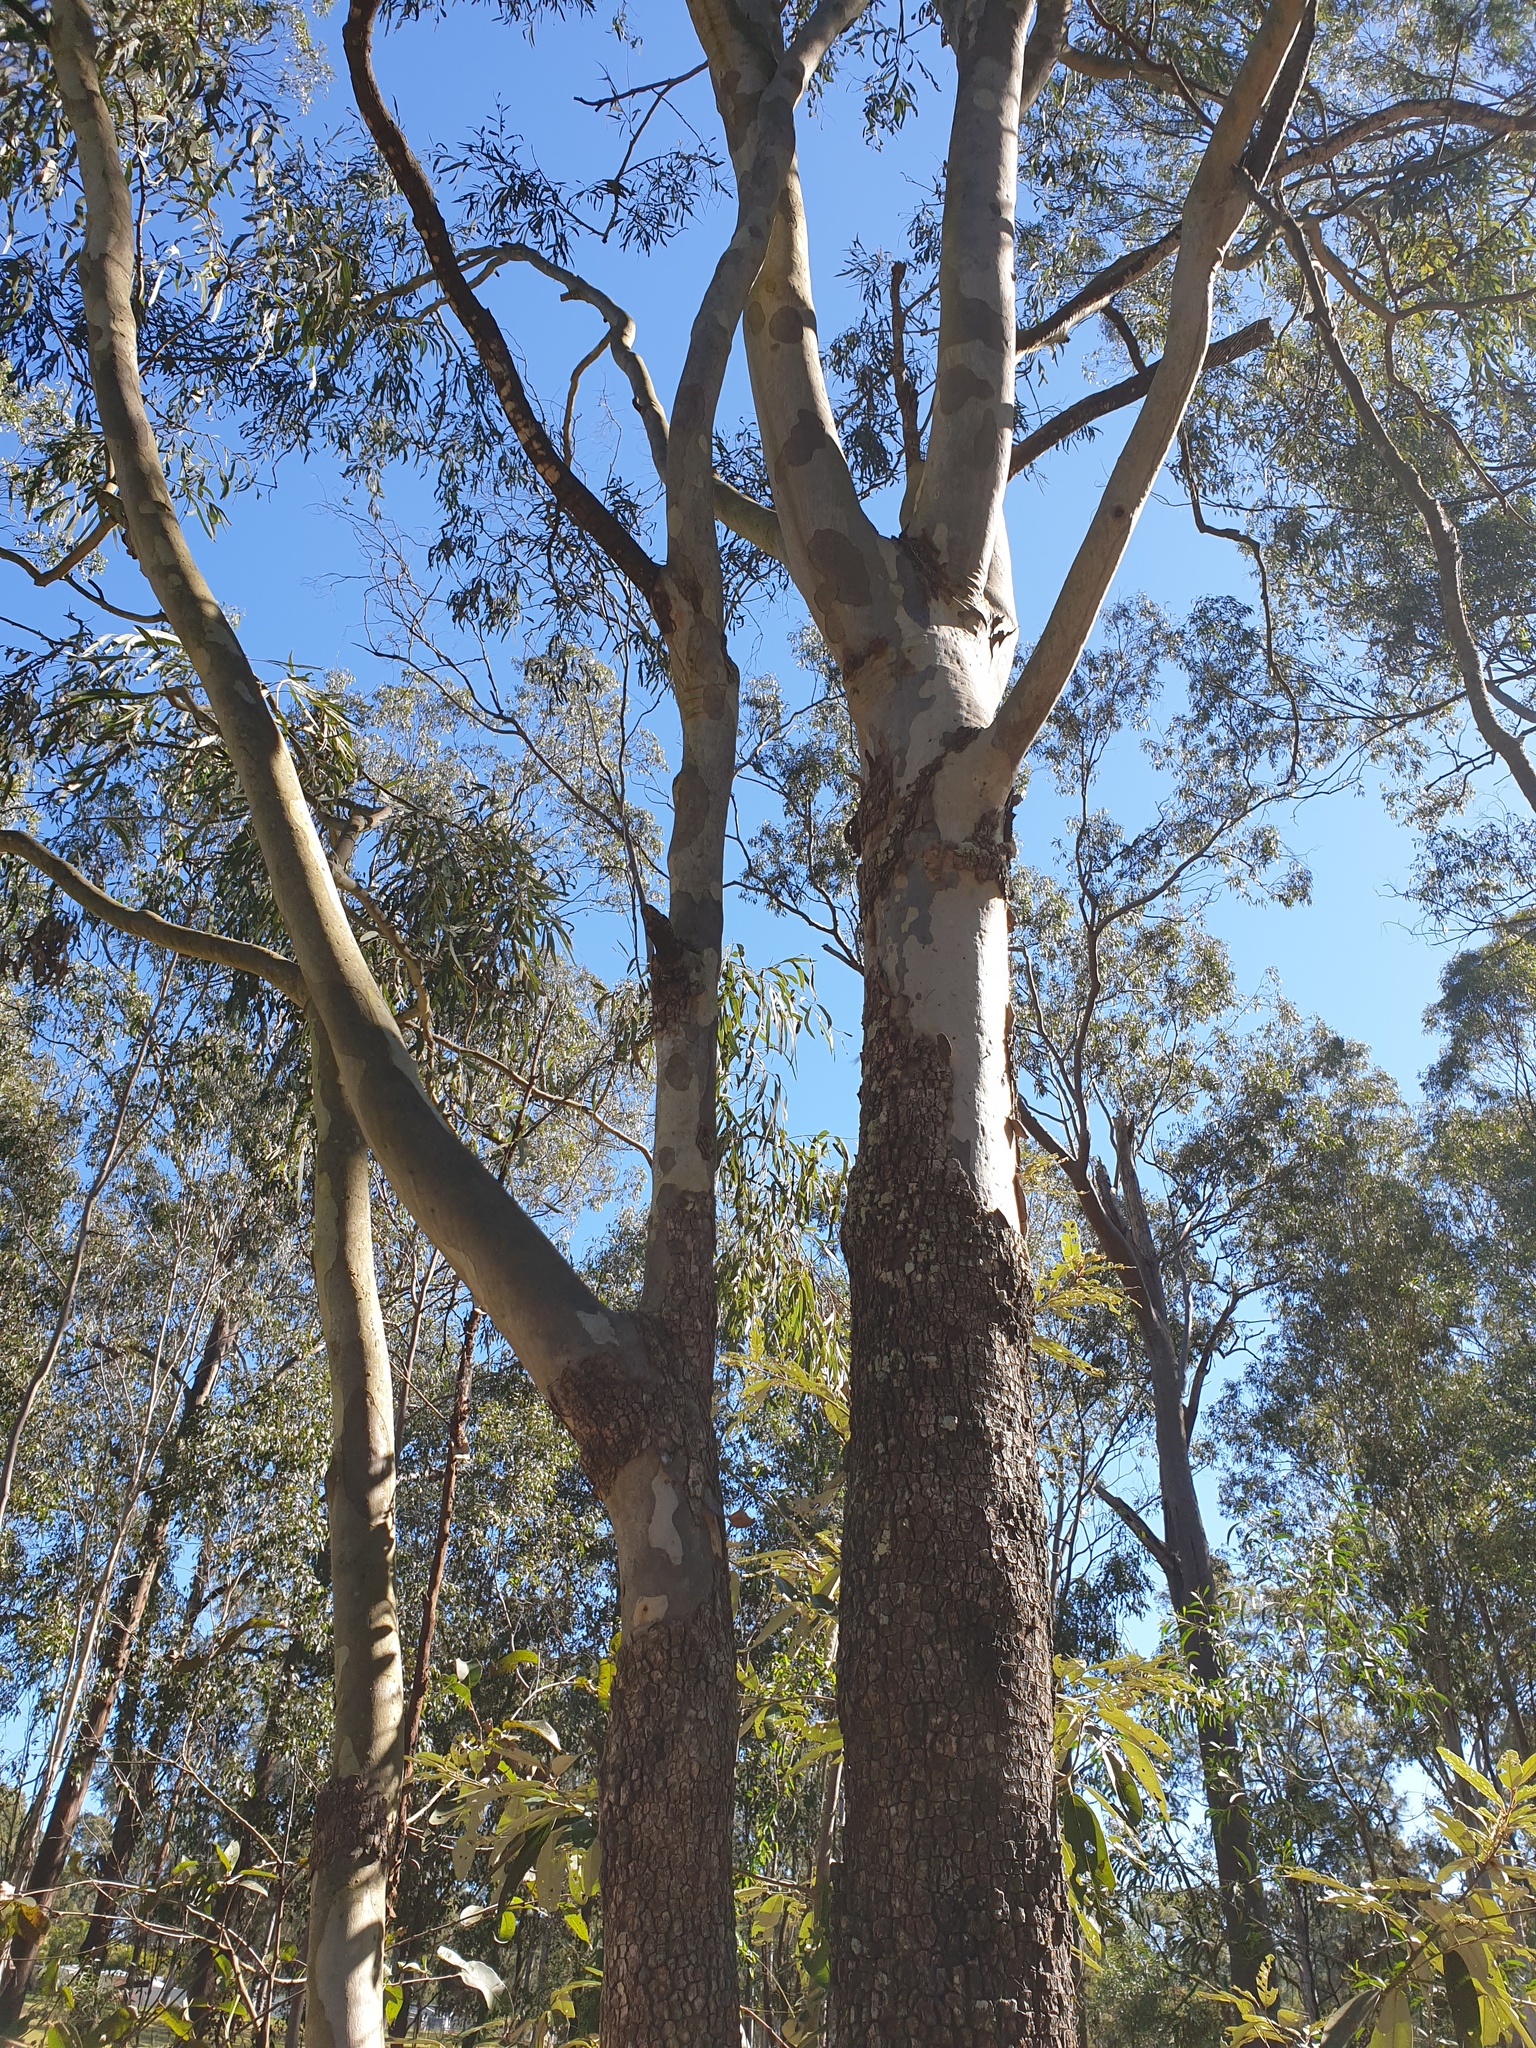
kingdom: Plantae
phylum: Tracheophyta
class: Magnoliopsida
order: Myrtales
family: Myrtaceae
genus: Corymbia
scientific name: Corymbia tessellaris
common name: Carbeen
